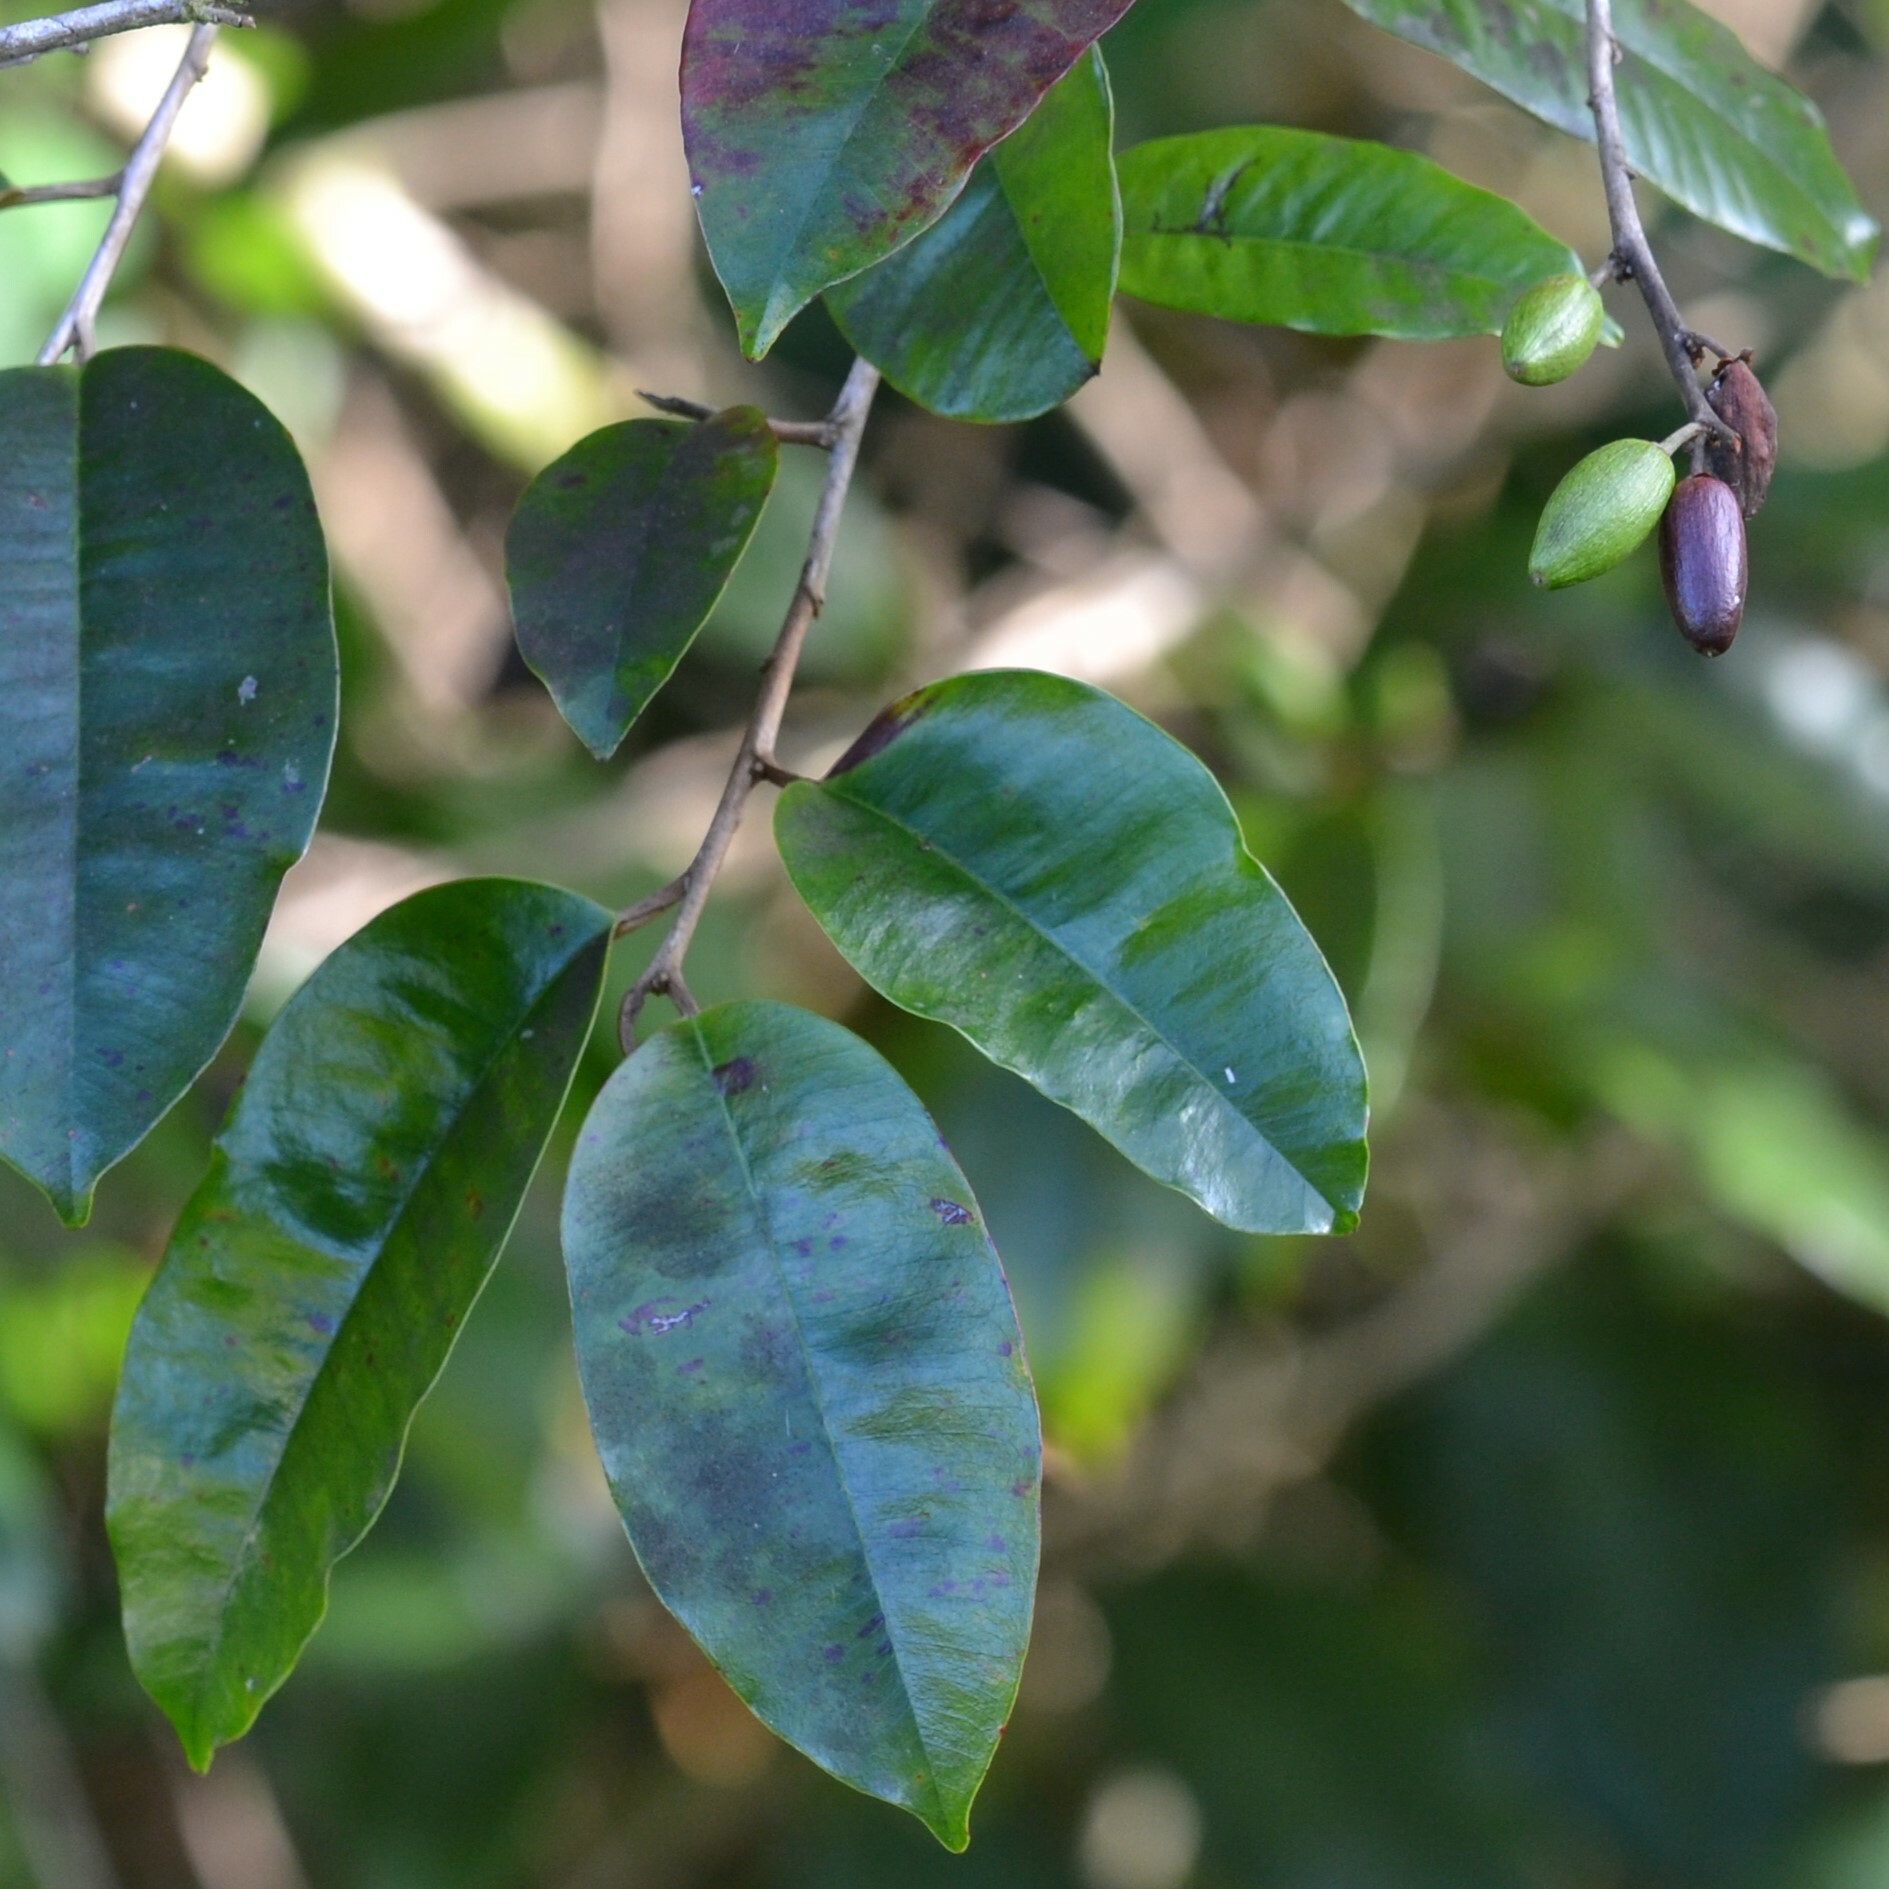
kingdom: Plantae
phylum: Tracheophyta
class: Magnoliopsida
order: Ericales
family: Sapotaceae
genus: Chrysophyllum
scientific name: Chrysophyllum oliviforme
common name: Satinleaf
